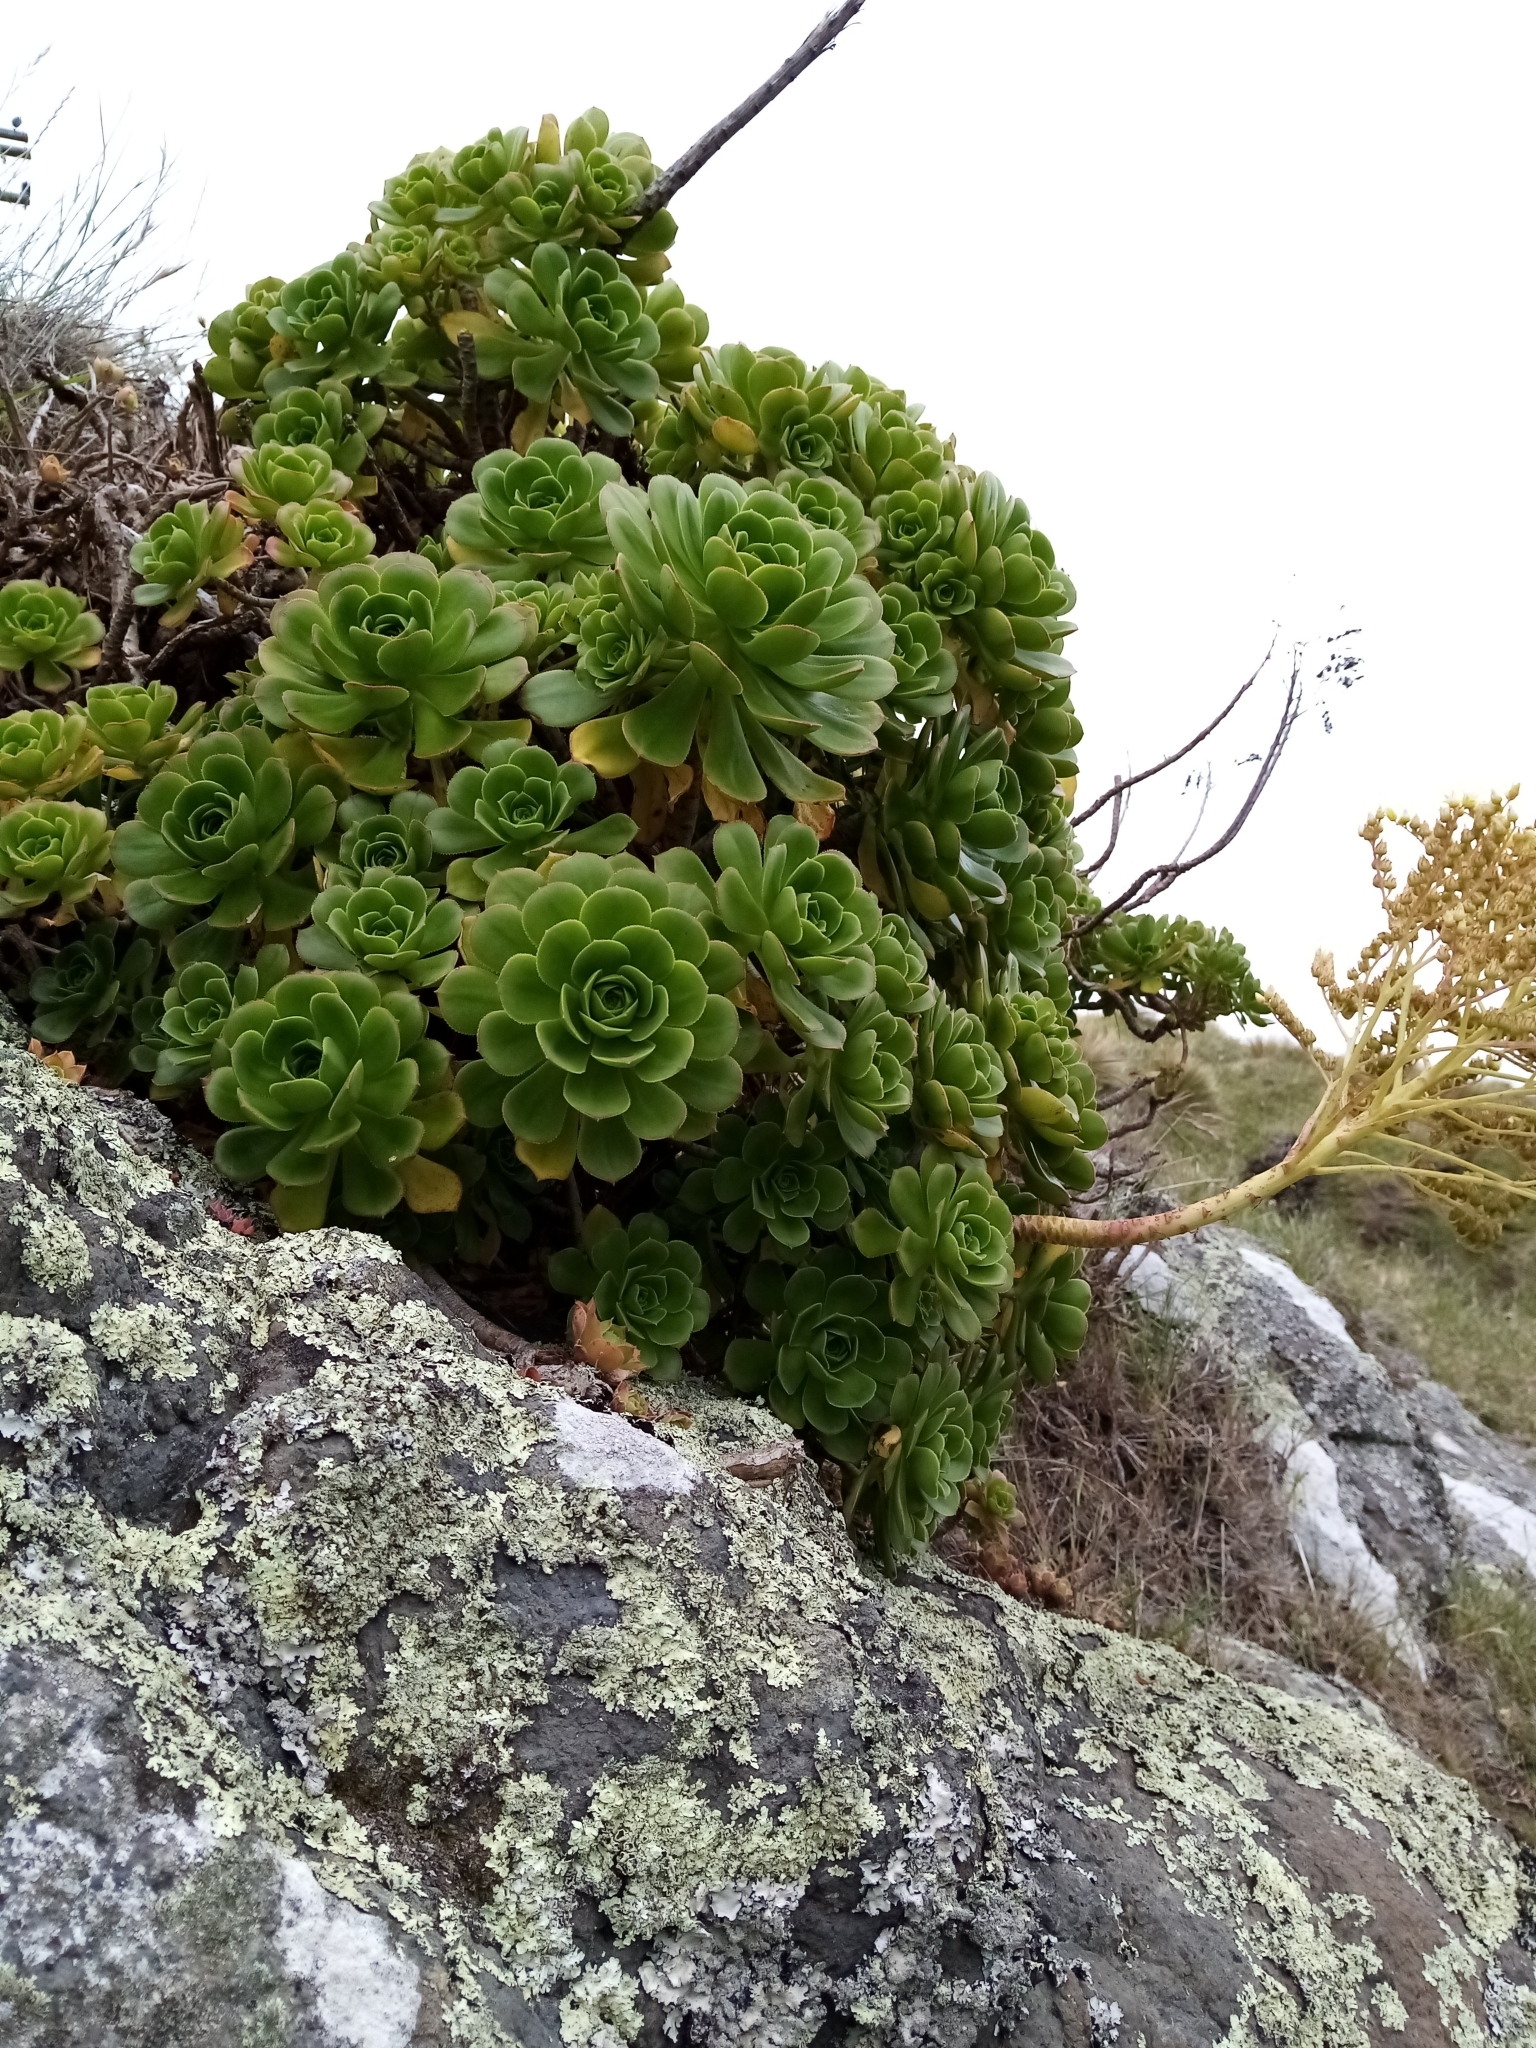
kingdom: Plantae
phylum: Tracheophyta
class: Magnoliopsida
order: Saxifragales
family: Crassulaceae
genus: Aeonium
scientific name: Aeonium arboreum
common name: Tree aeonium
